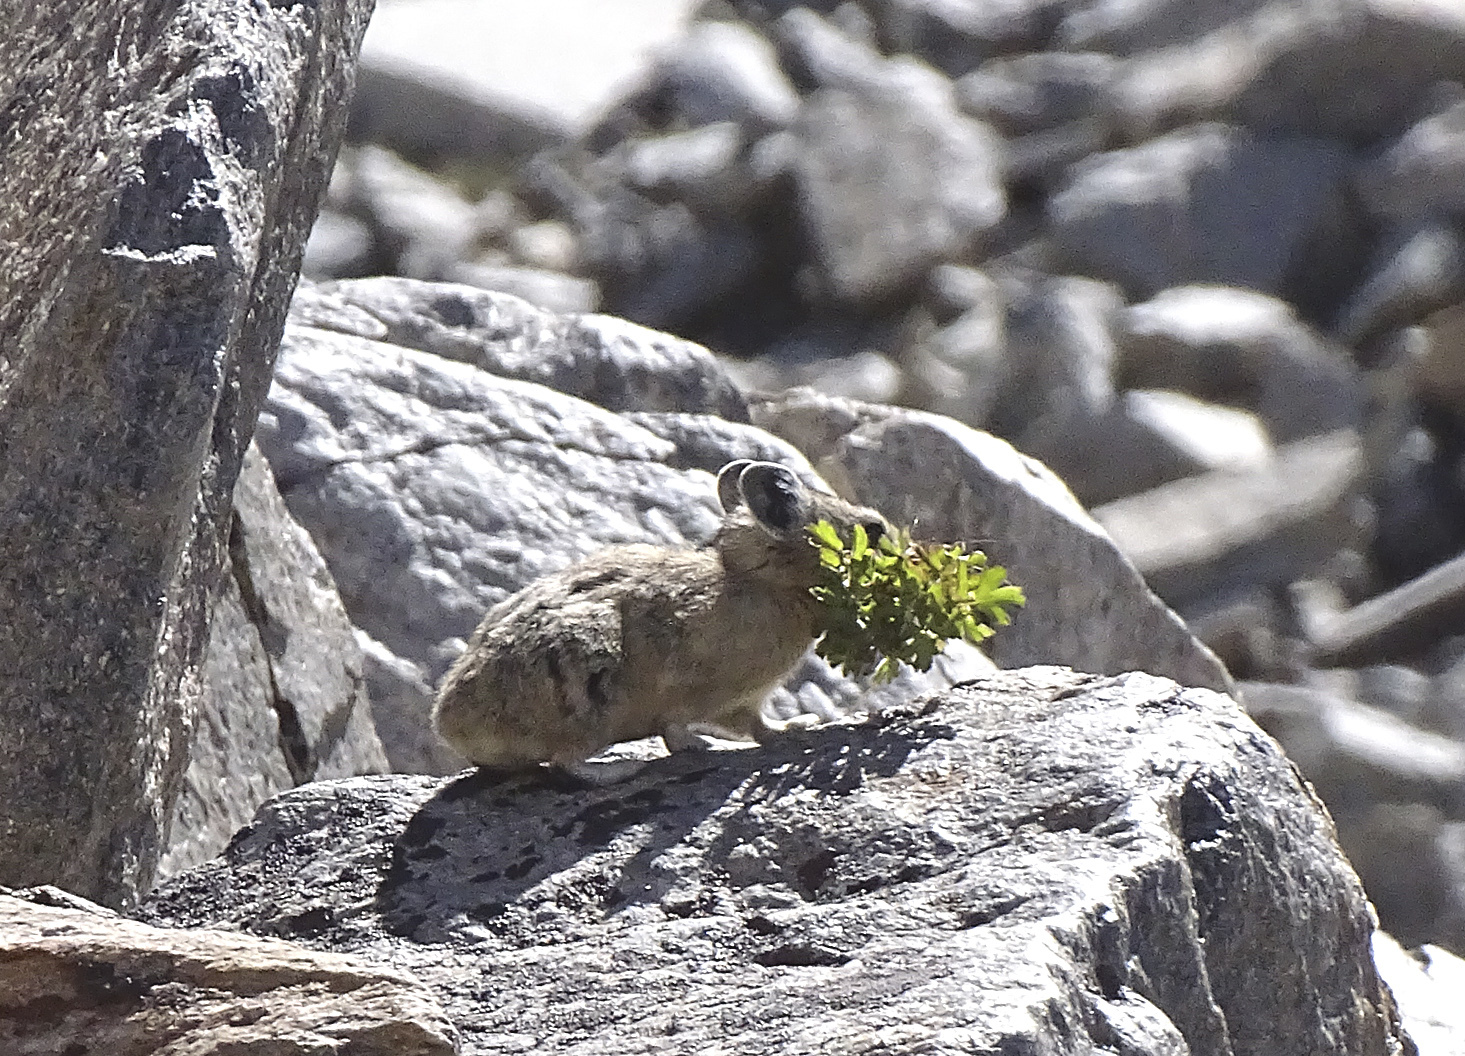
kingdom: Animalia
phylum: Chordata
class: Mammalia
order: Lagomorpha
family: Ochotonidae
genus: Ochotona
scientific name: Ochotona princeps
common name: American pika
